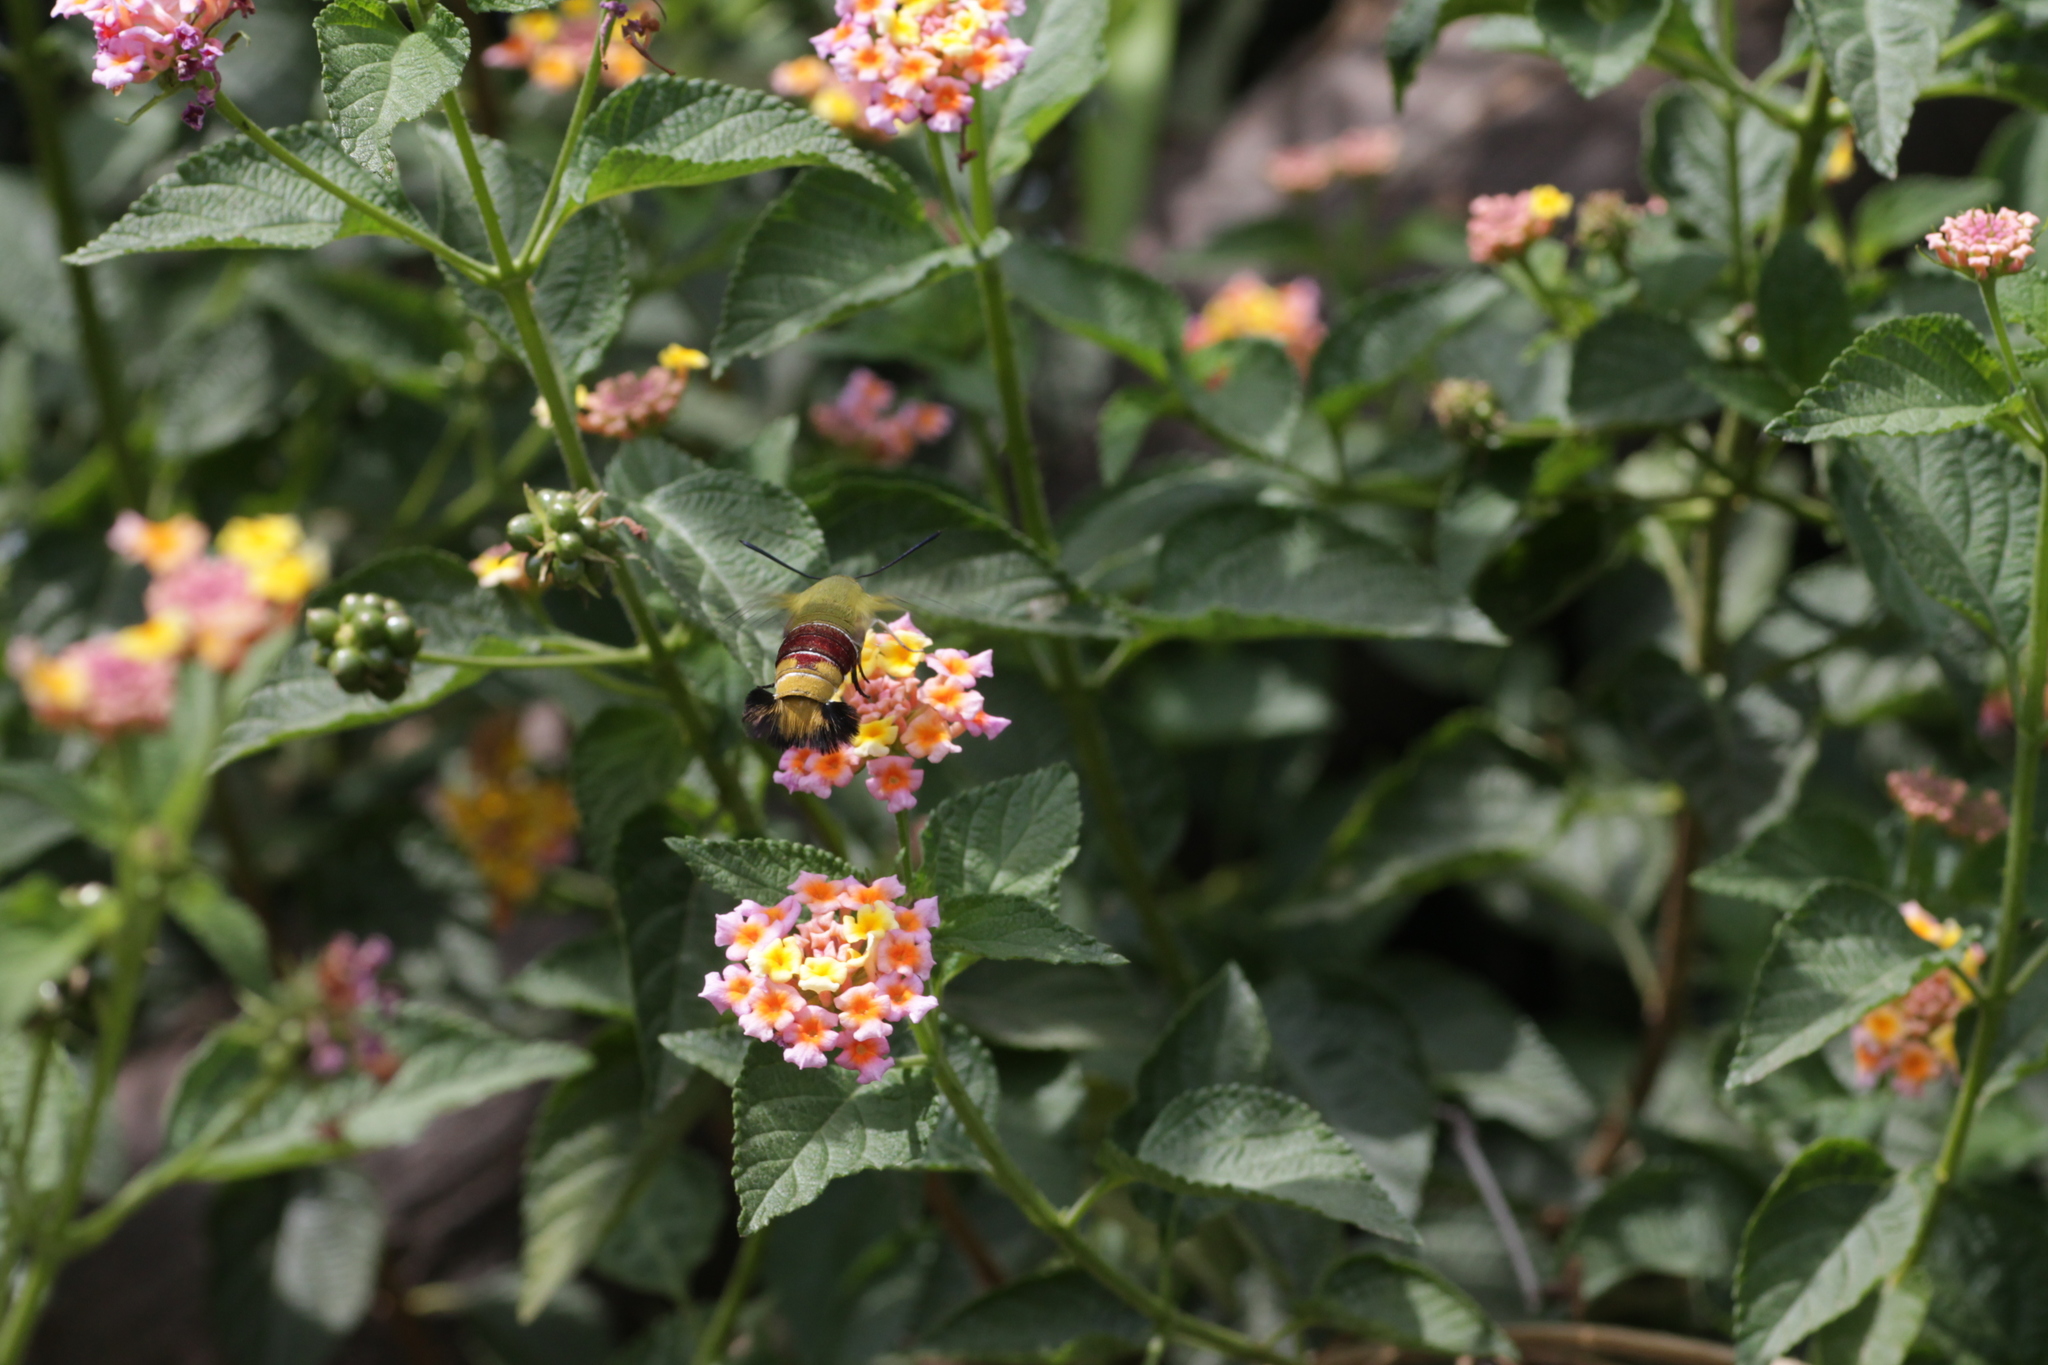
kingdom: Animalia
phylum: Arthropoda
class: Insecta
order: Lepidoptera
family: Sphingidae
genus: Cephonodes
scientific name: Cephonodes hylas
